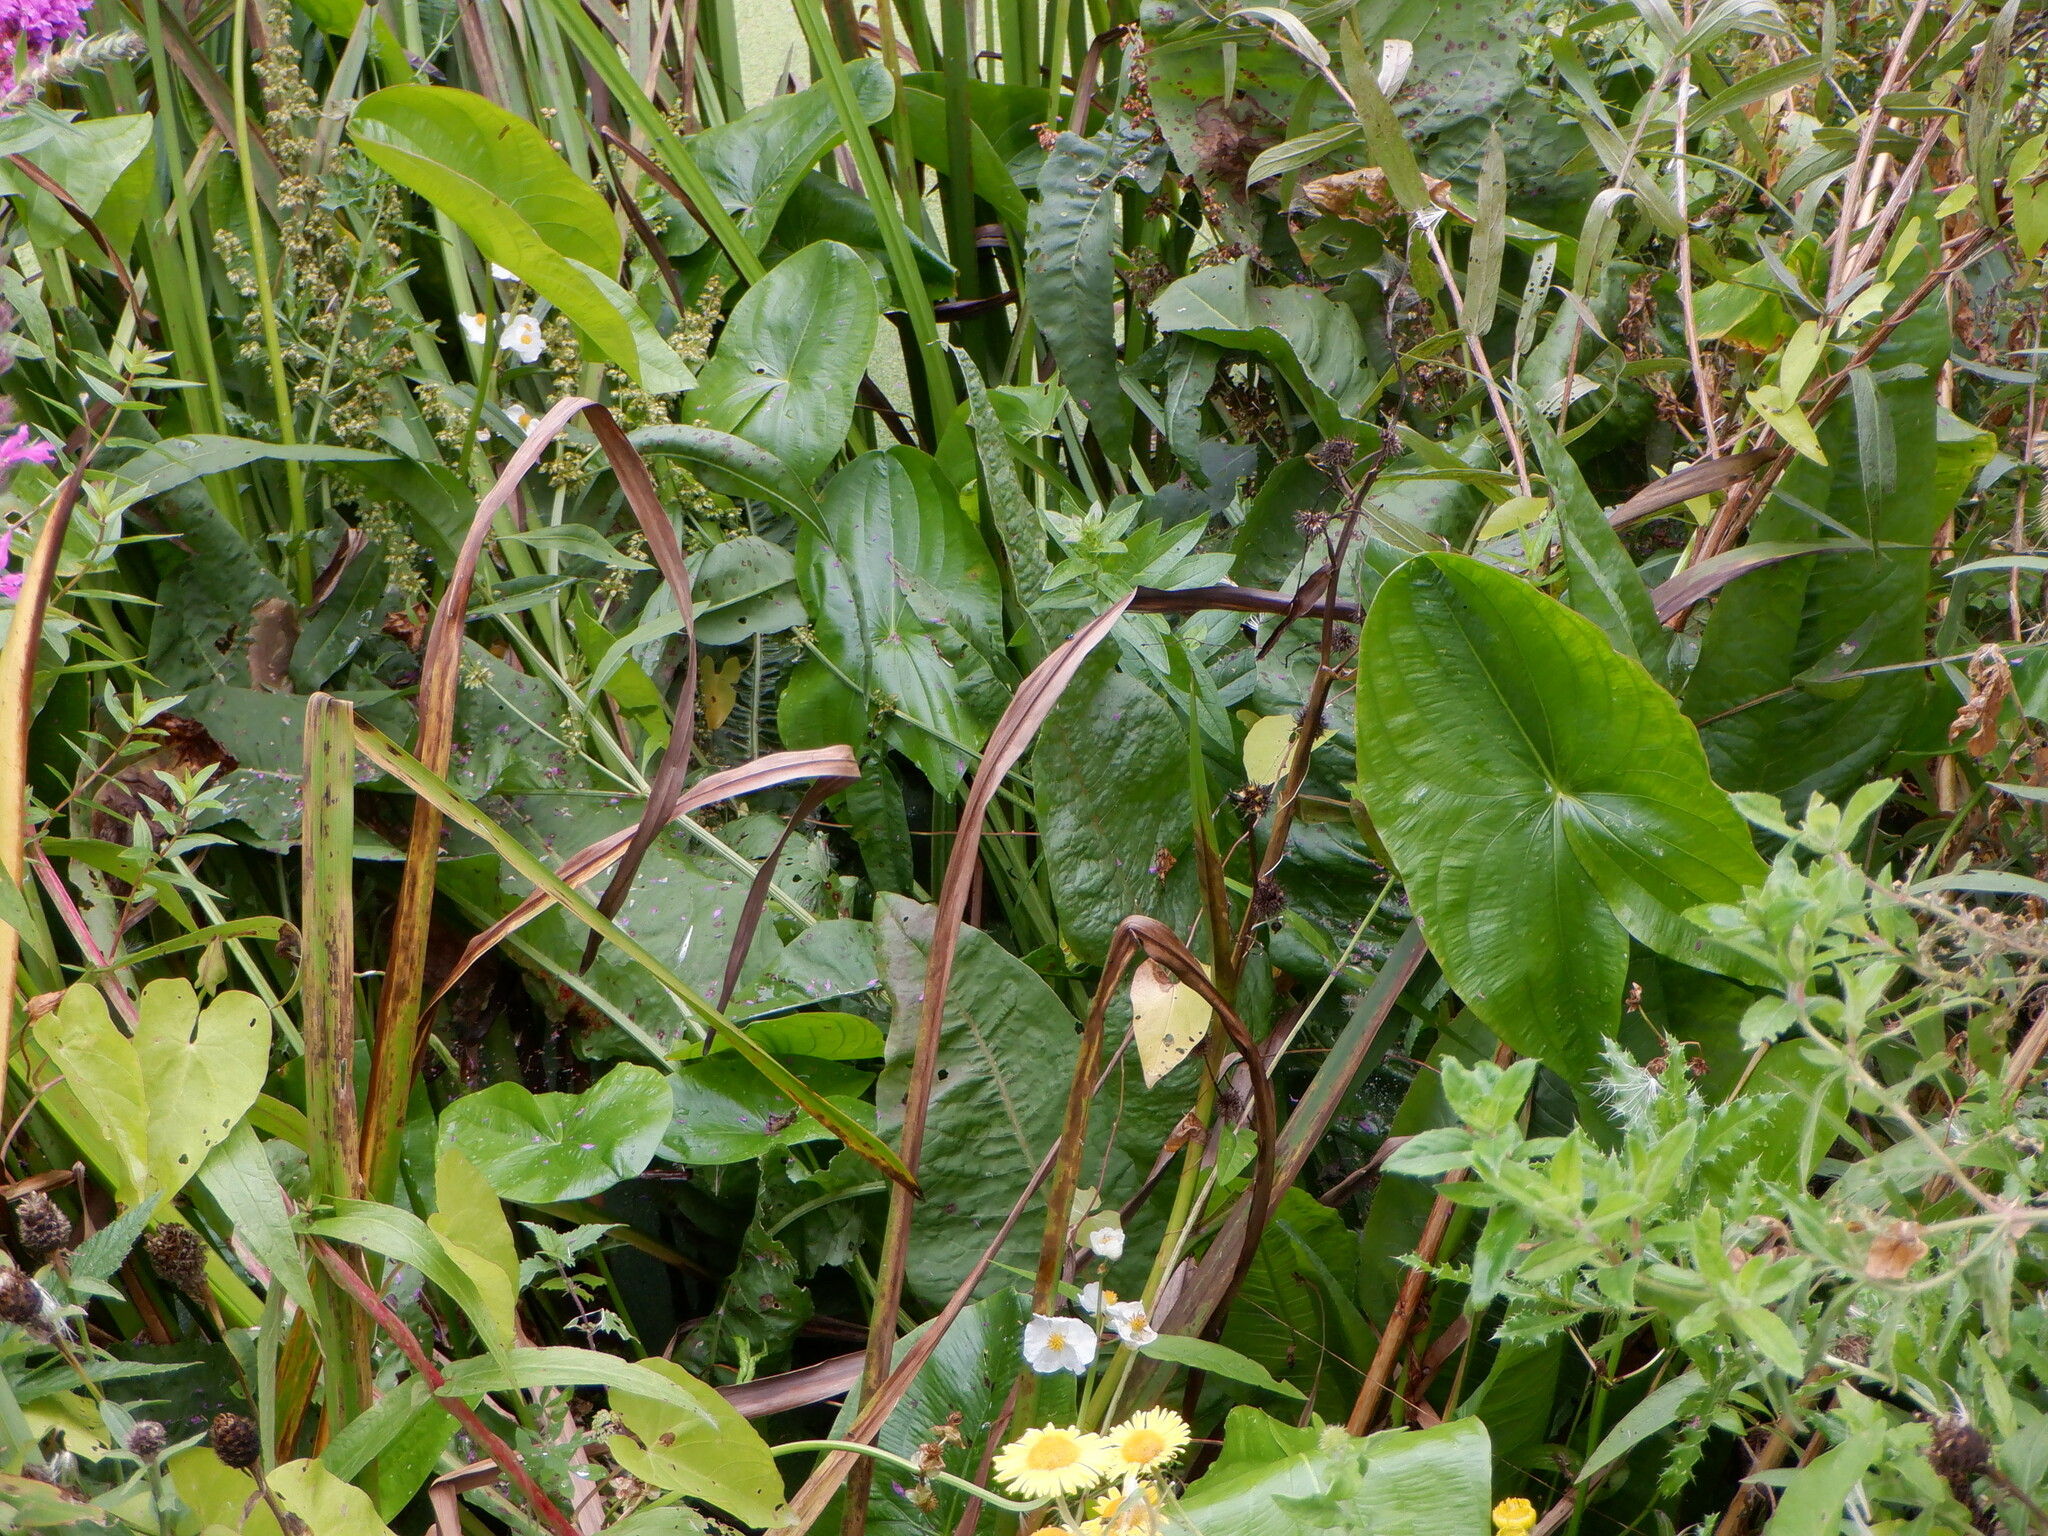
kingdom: Plantae
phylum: Tracheophyta
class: Liliopsida
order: Alismatales
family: Alismataceae
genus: Sagittaria
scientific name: Sagittaria latifolia
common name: Duck-potato
